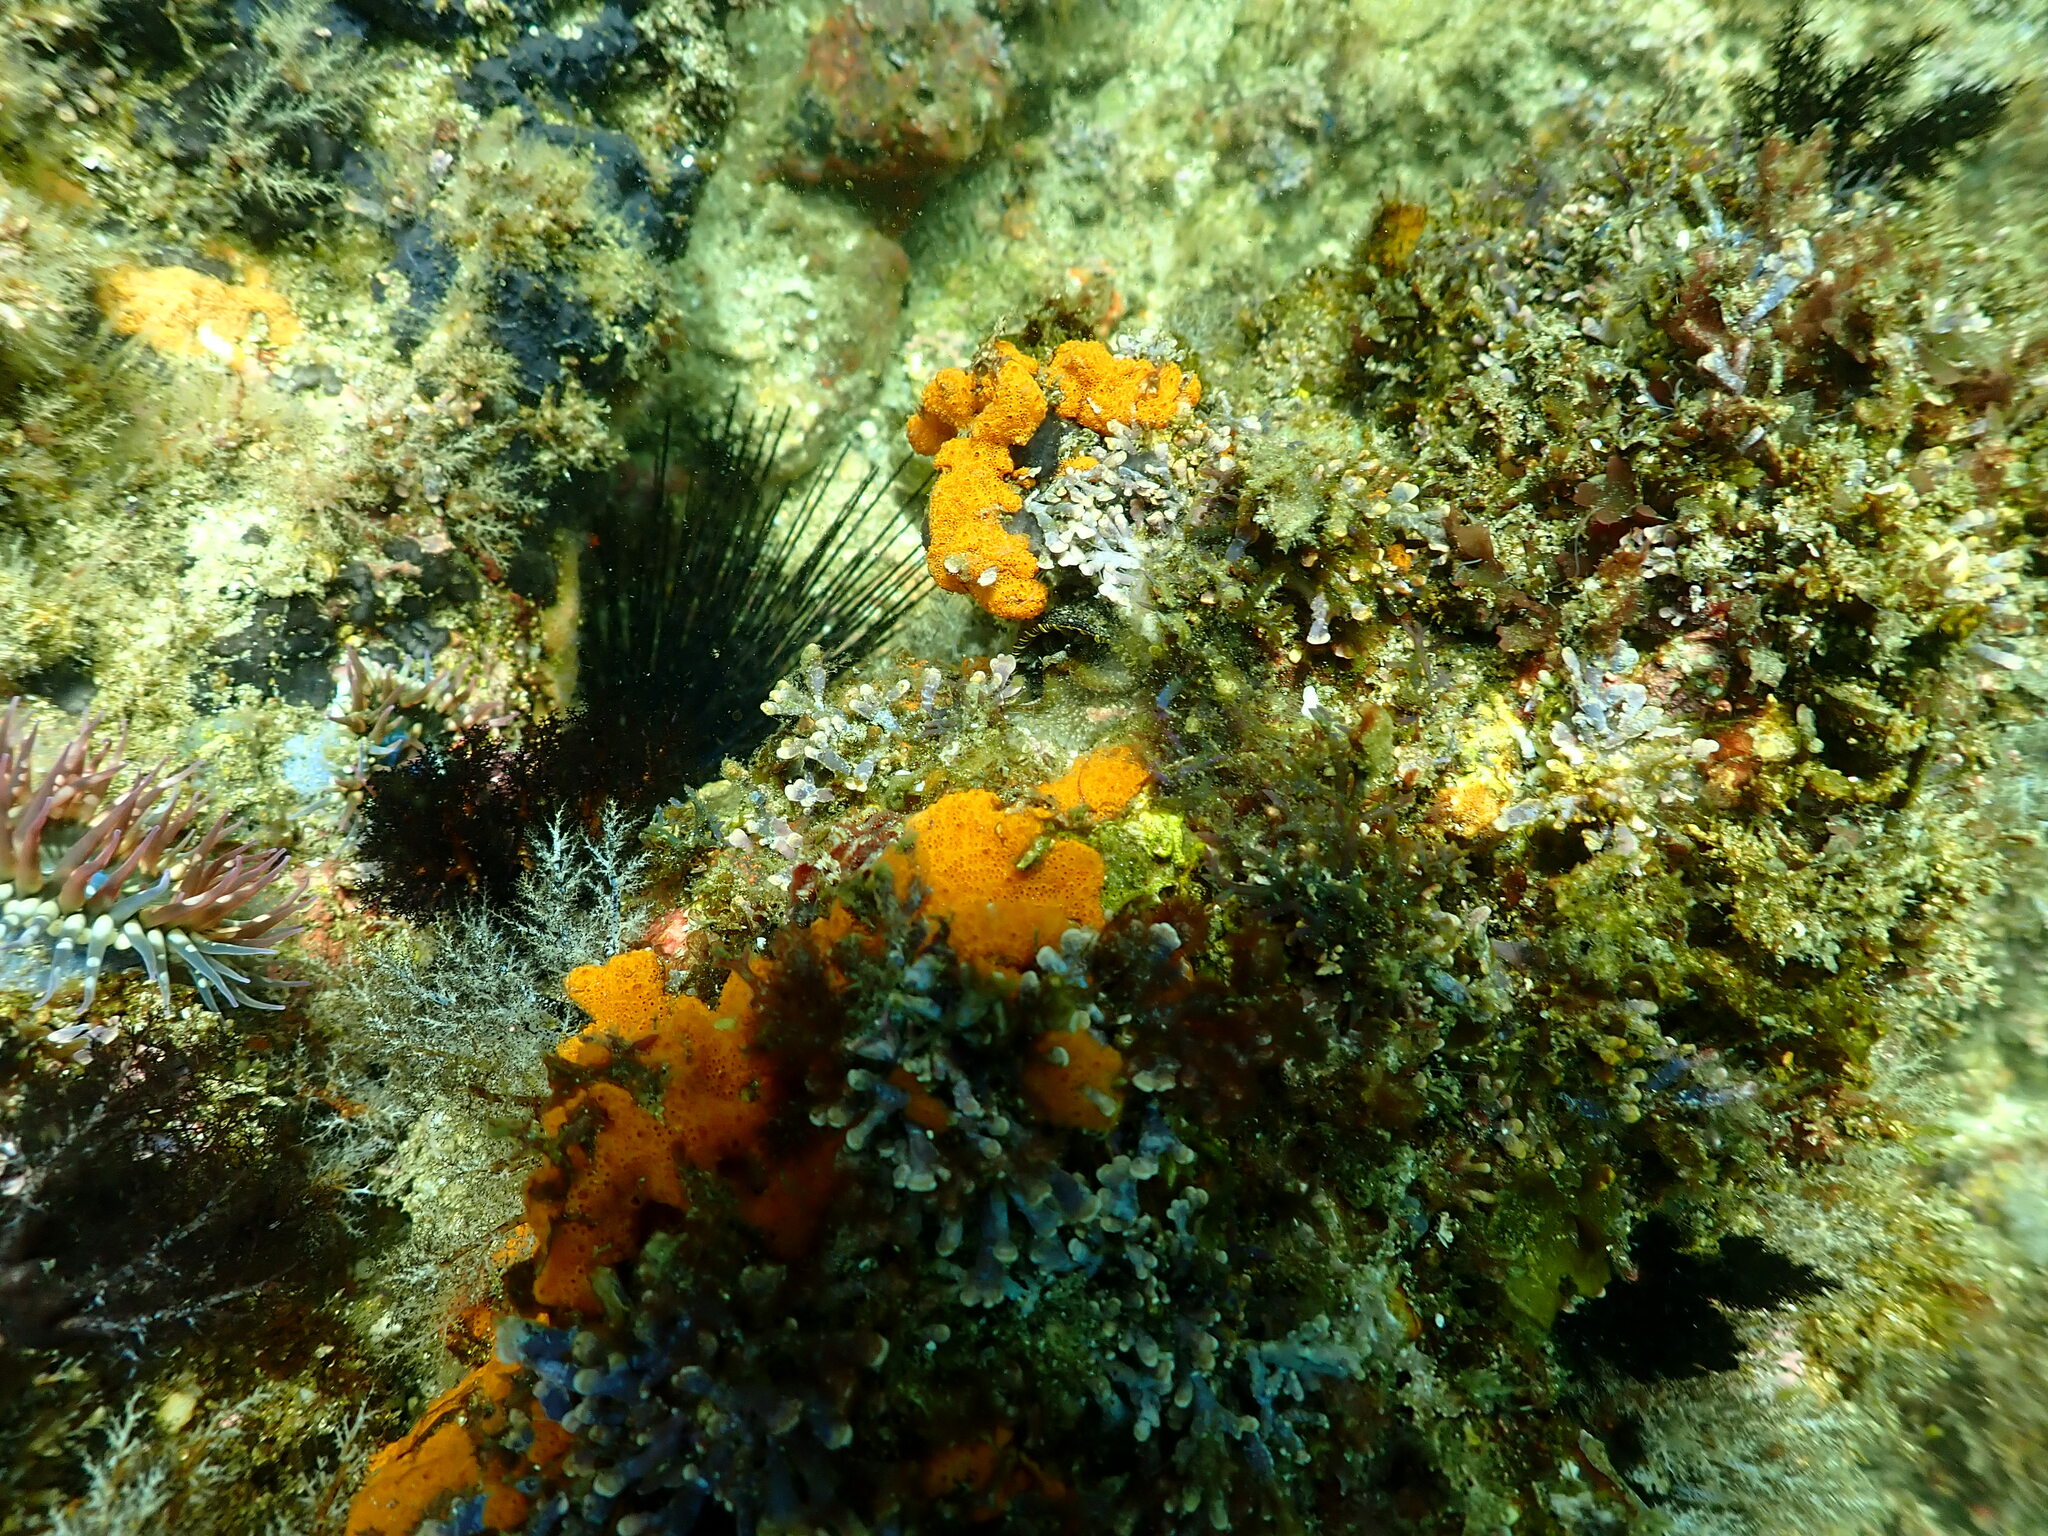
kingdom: Animalia
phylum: Cnidaria
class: Anthozoa
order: Actiniaria
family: Actiniidae
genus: Bunodosoma
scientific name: Bunodosoma californicum
